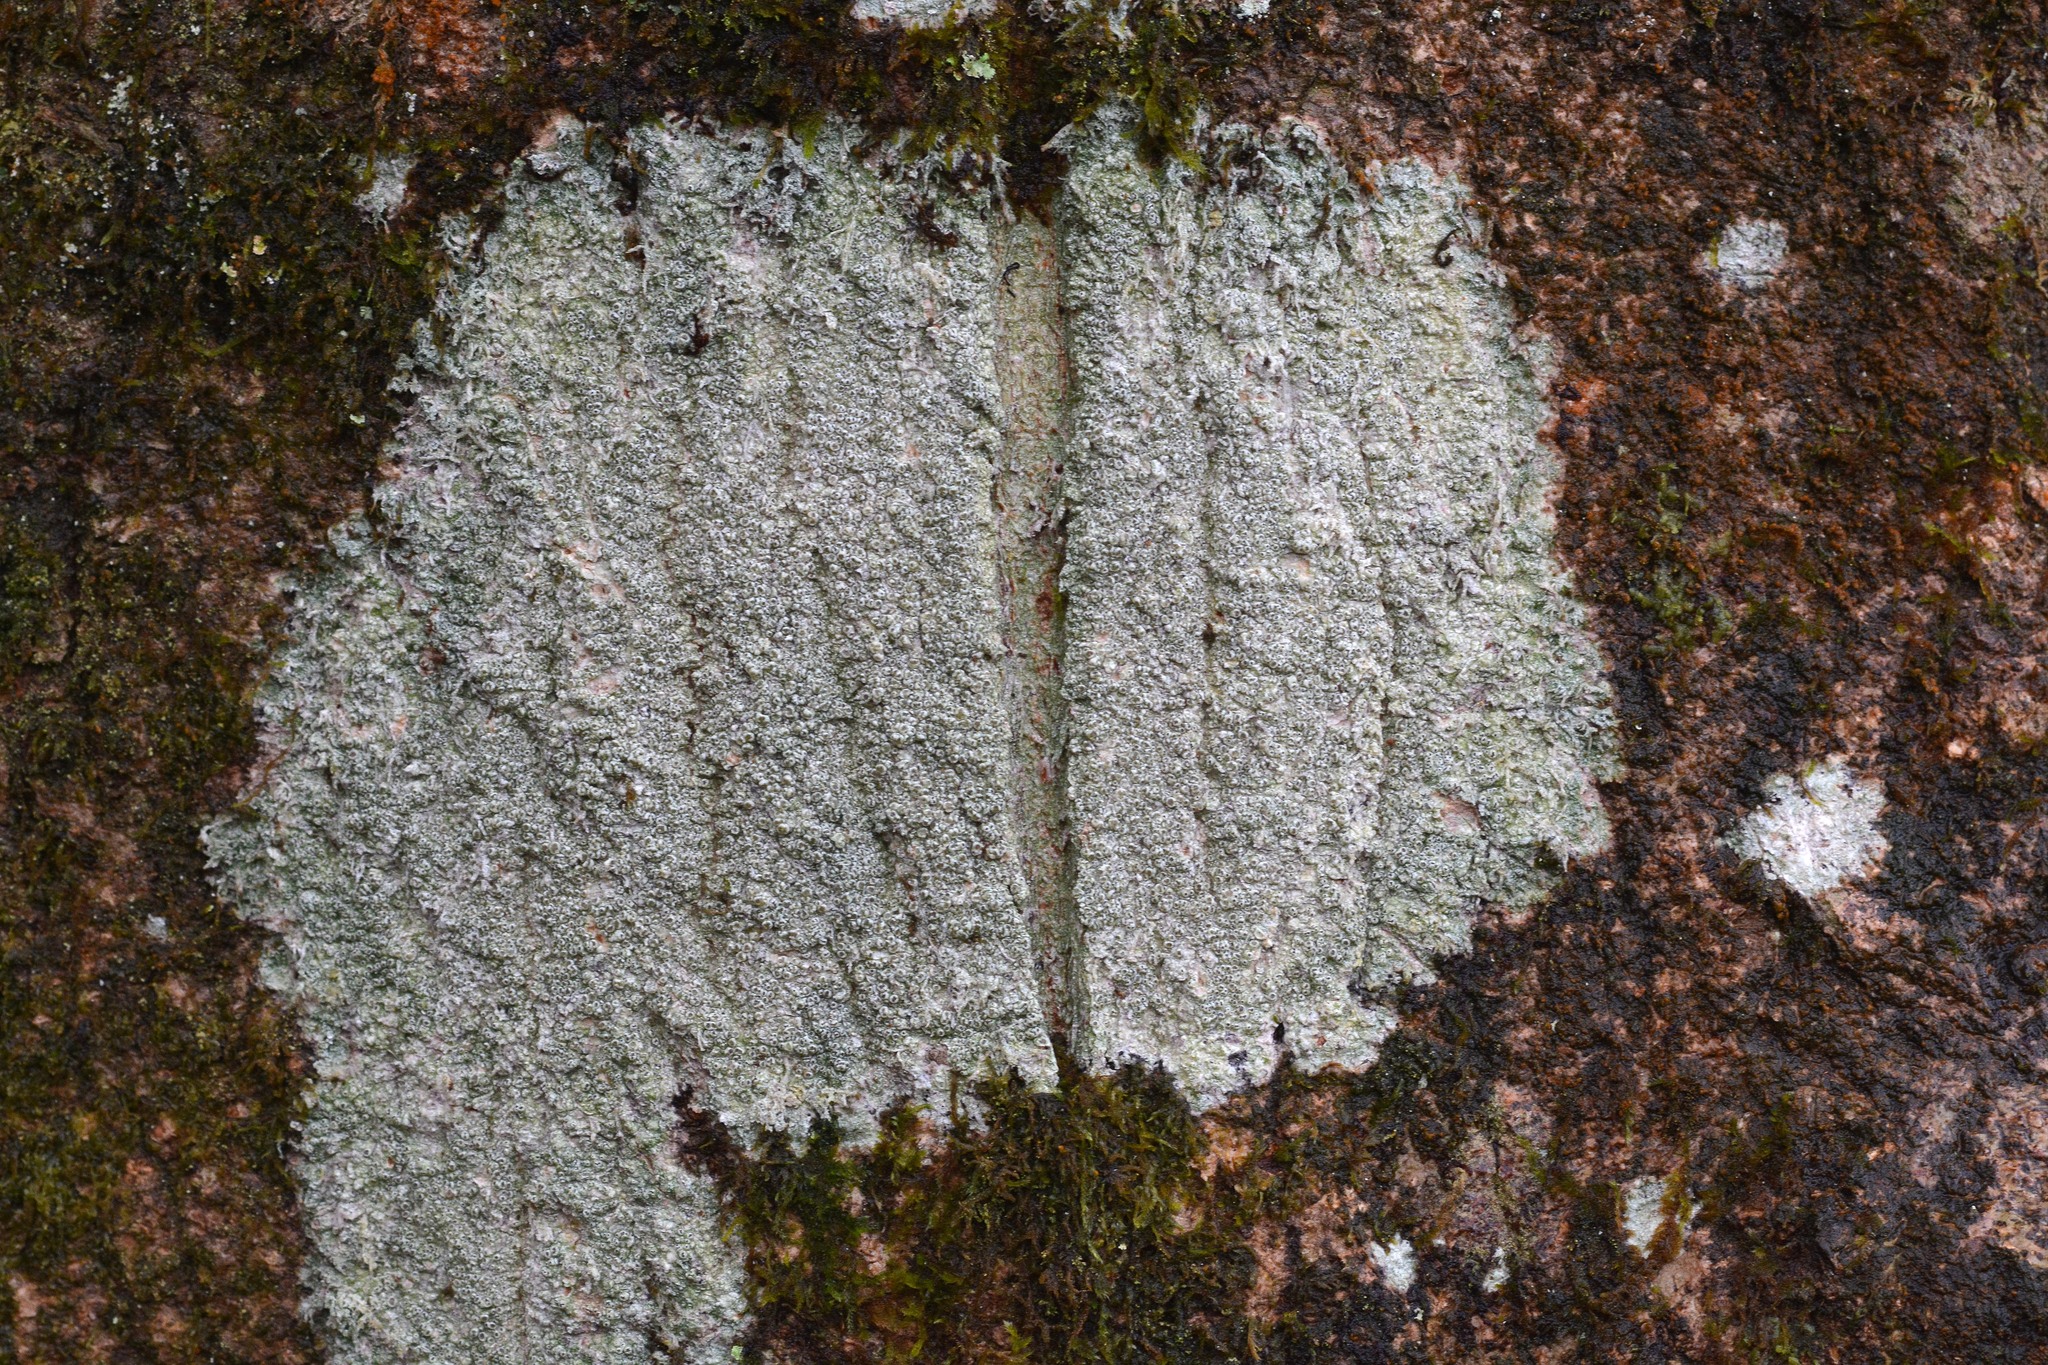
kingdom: Fungi
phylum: Ascomycota
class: Lecanoromycetes
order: Pertusariales
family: Pertusariaceae
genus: Pertusaria
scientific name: Pertusaria hymenea
